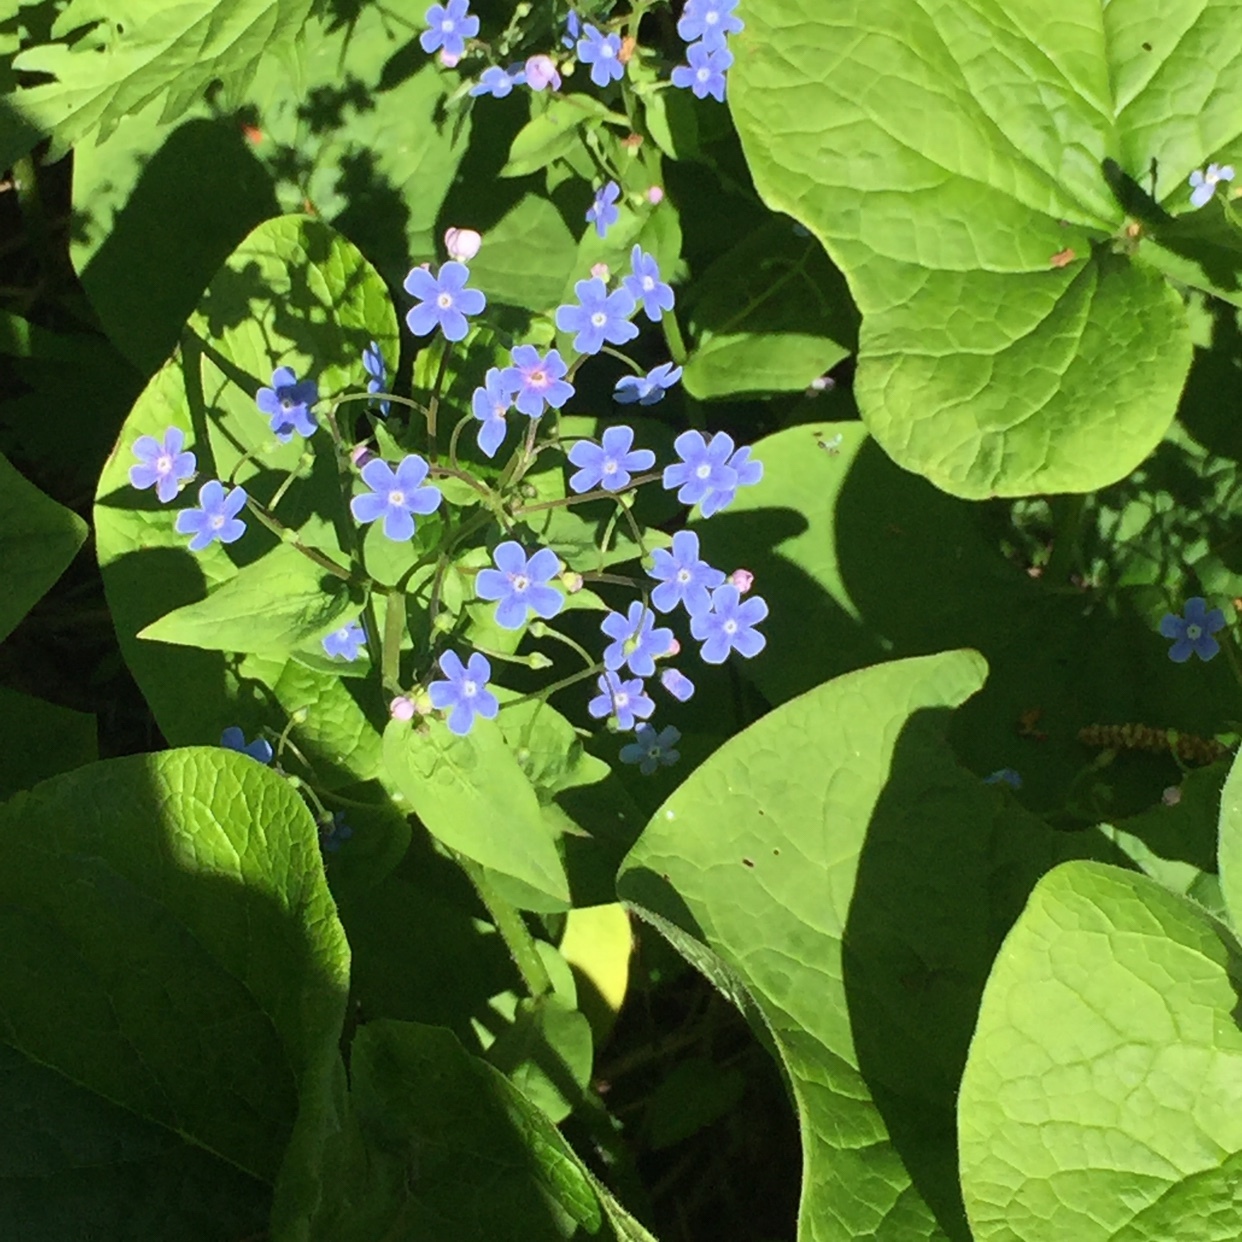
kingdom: Plantae
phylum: Tracheophyta
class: Magnoliopsida
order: Boraginales
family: Boraginaceae
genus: Brunnera
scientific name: Brunnera sibirica
